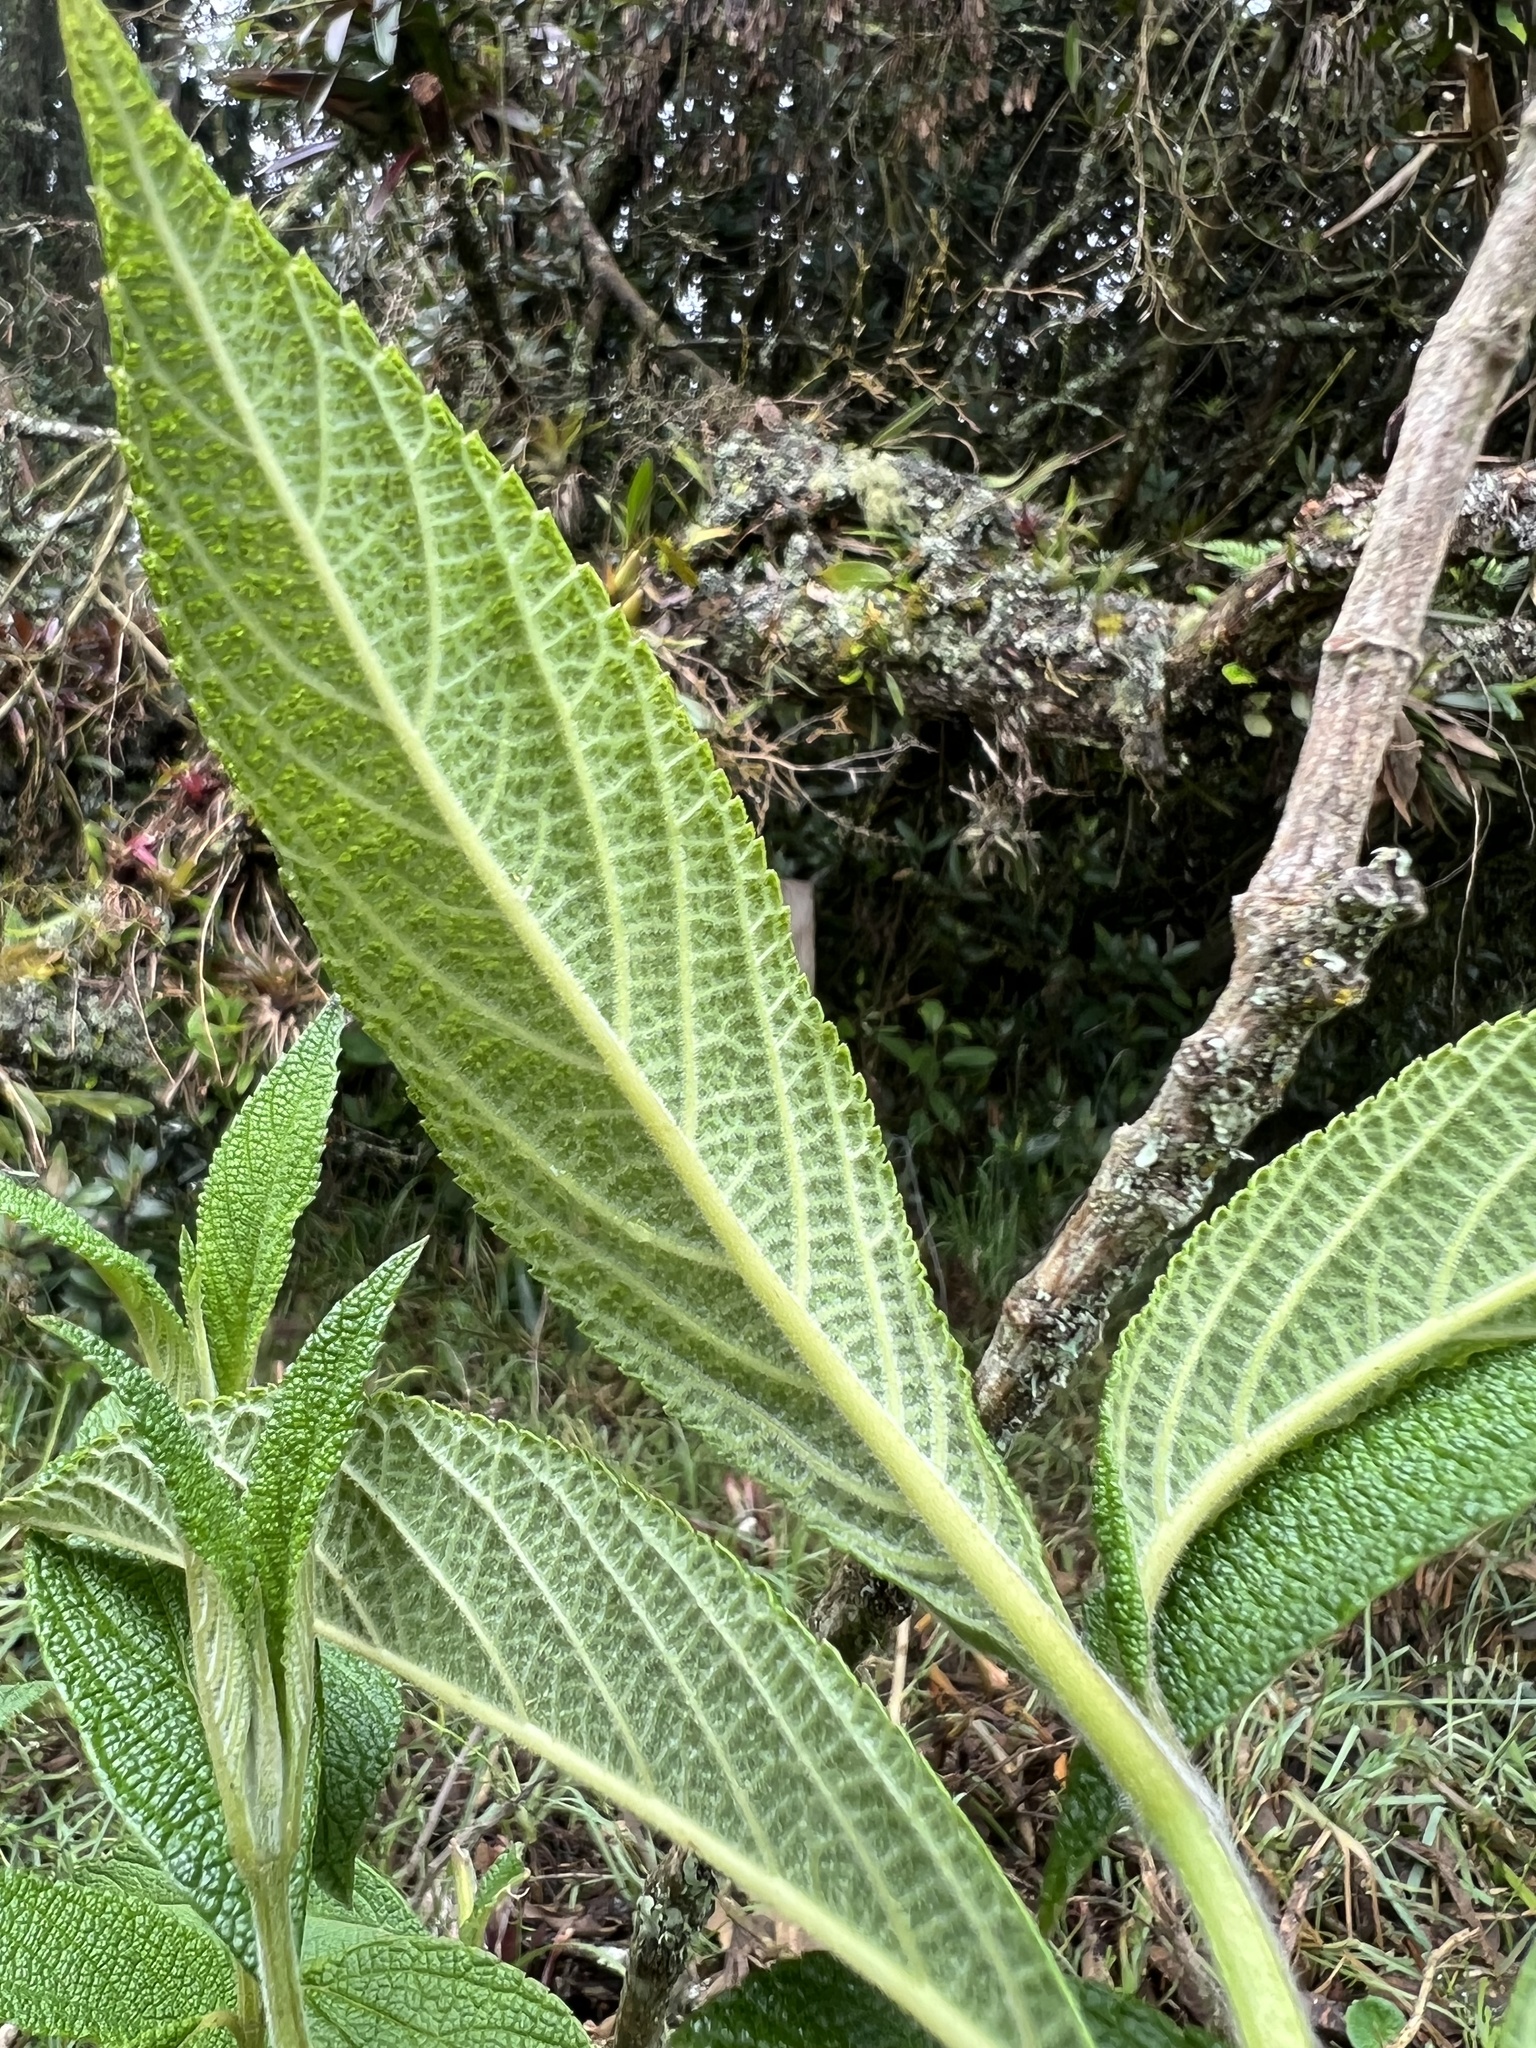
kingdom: Plantae
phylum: Tracheophyta
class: Magnoliopsida
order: Lamiales
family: Verbenaceae
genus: Lippia
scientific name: Lippia hirsuta
